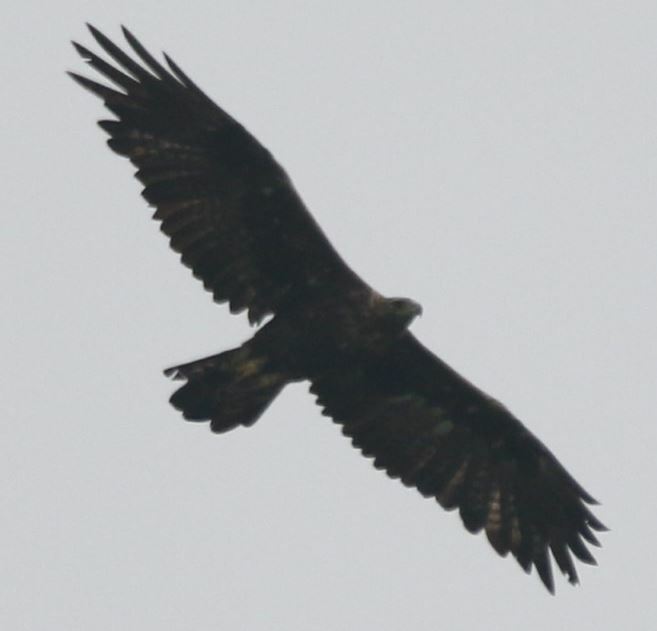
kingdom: Animalia
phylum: Chordata
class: Aves
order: Accipitriformes
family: Accipitridae
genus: Aquila
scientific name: Aquila chrysaetos
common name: Golden eagle
